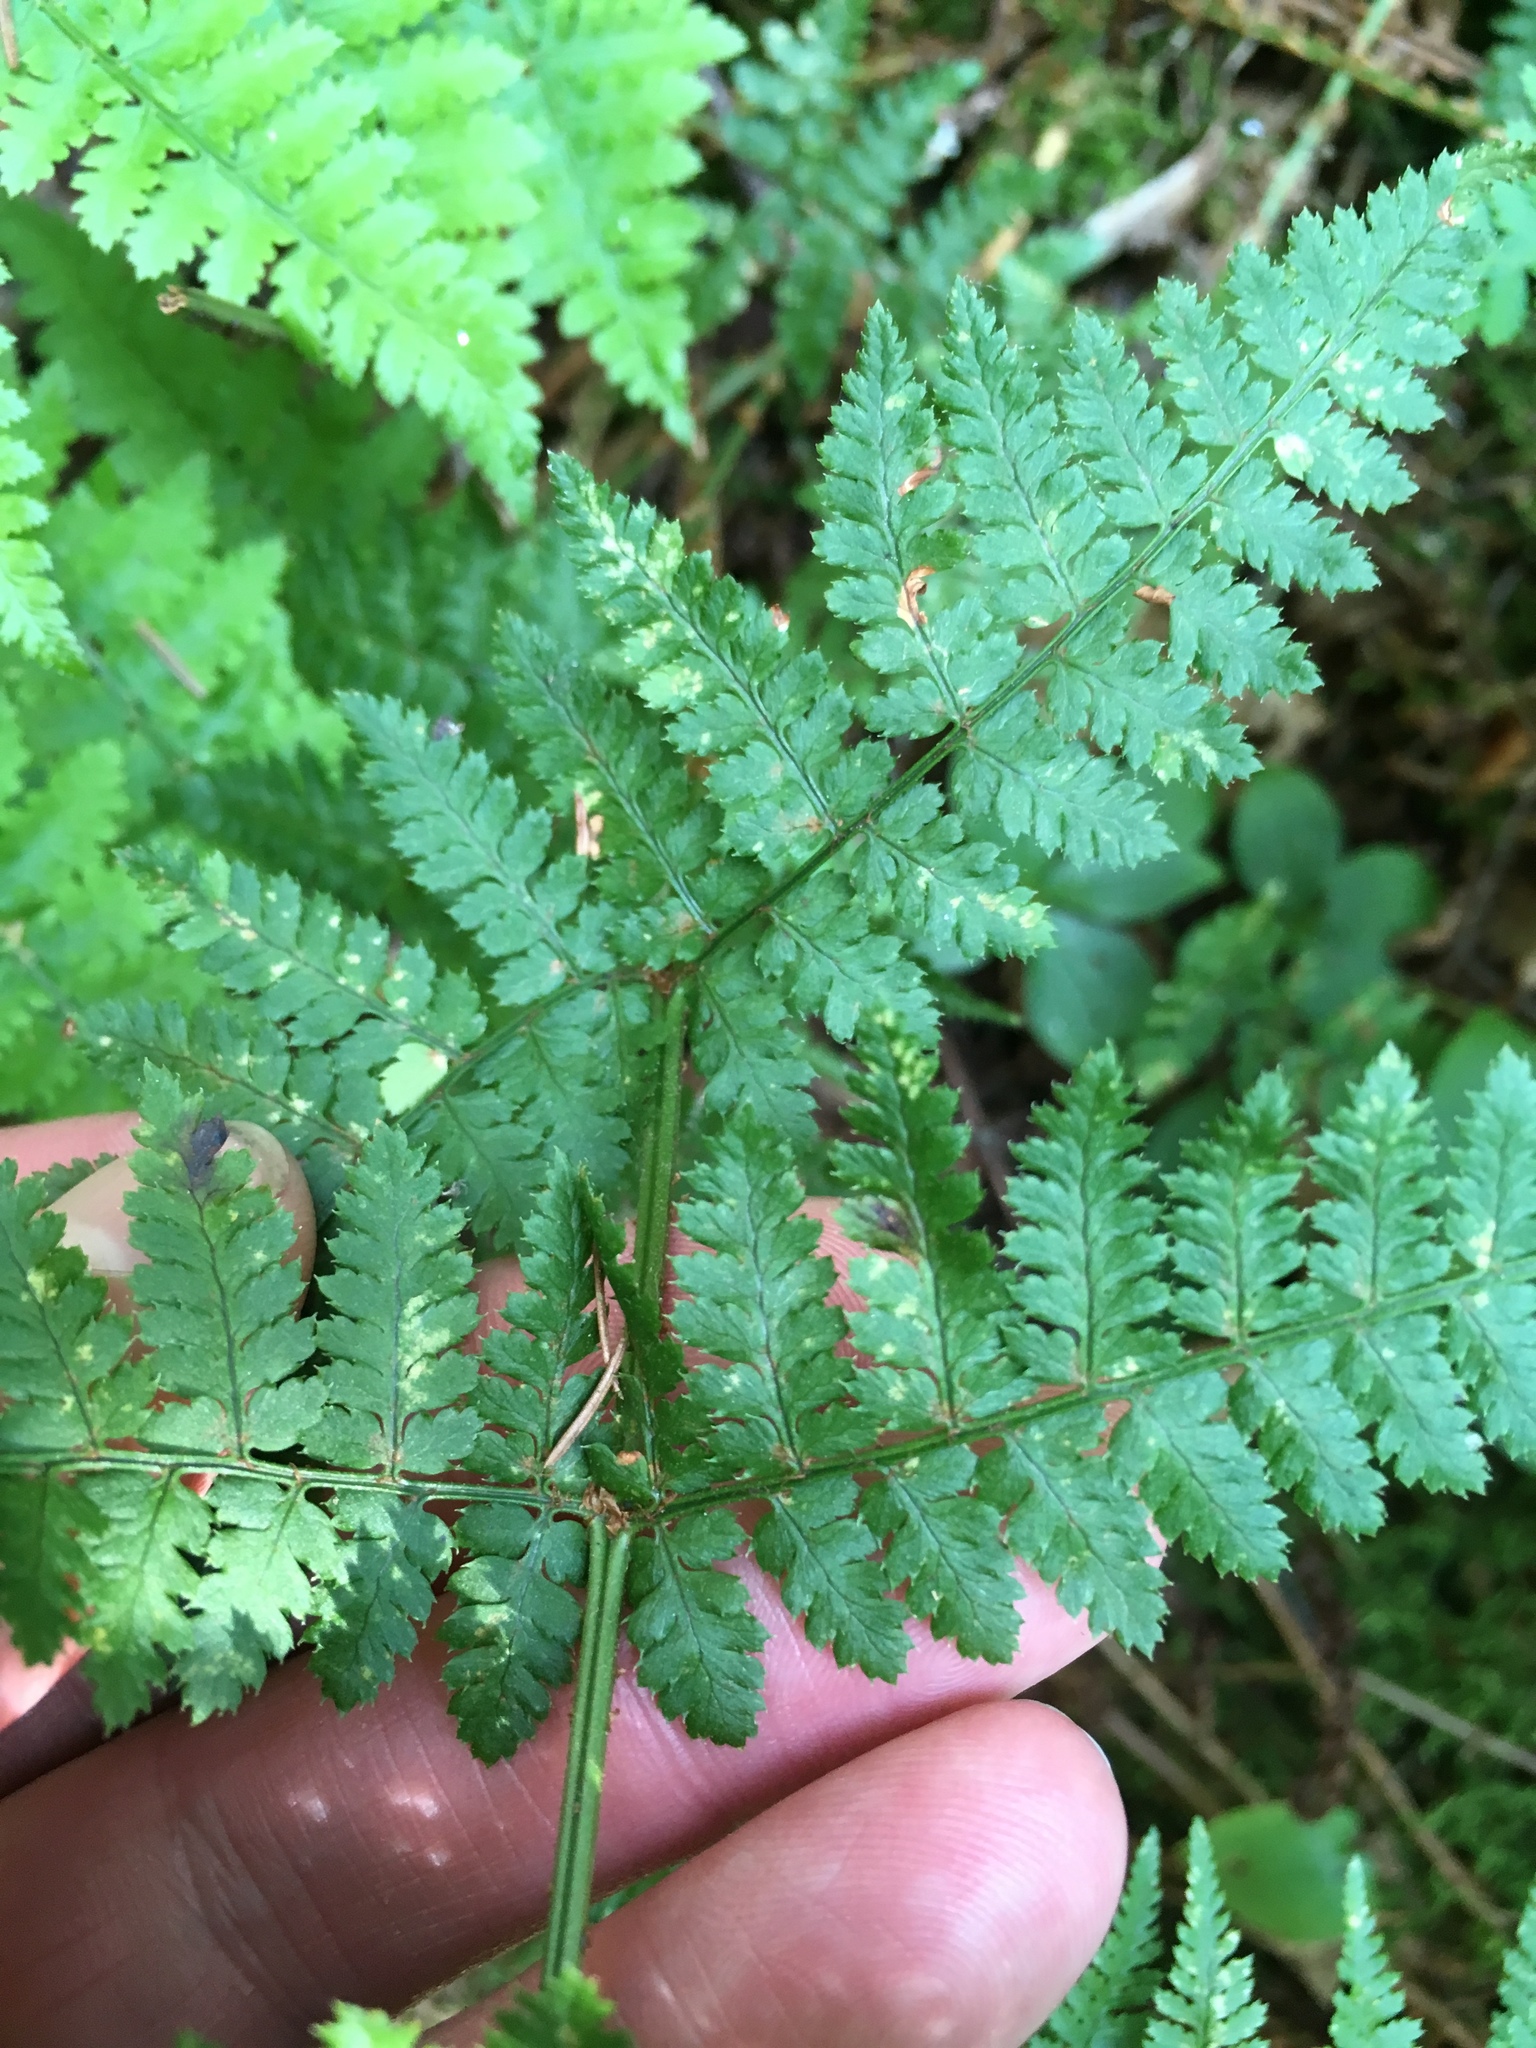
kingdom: Plantae
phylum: Tracheophyta
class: Polypodiopsida
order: Polypodiales
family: Dryopteridaceae
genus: Dryopteris
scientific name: Dryopteris intermedia
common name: Evergreen wood fern
